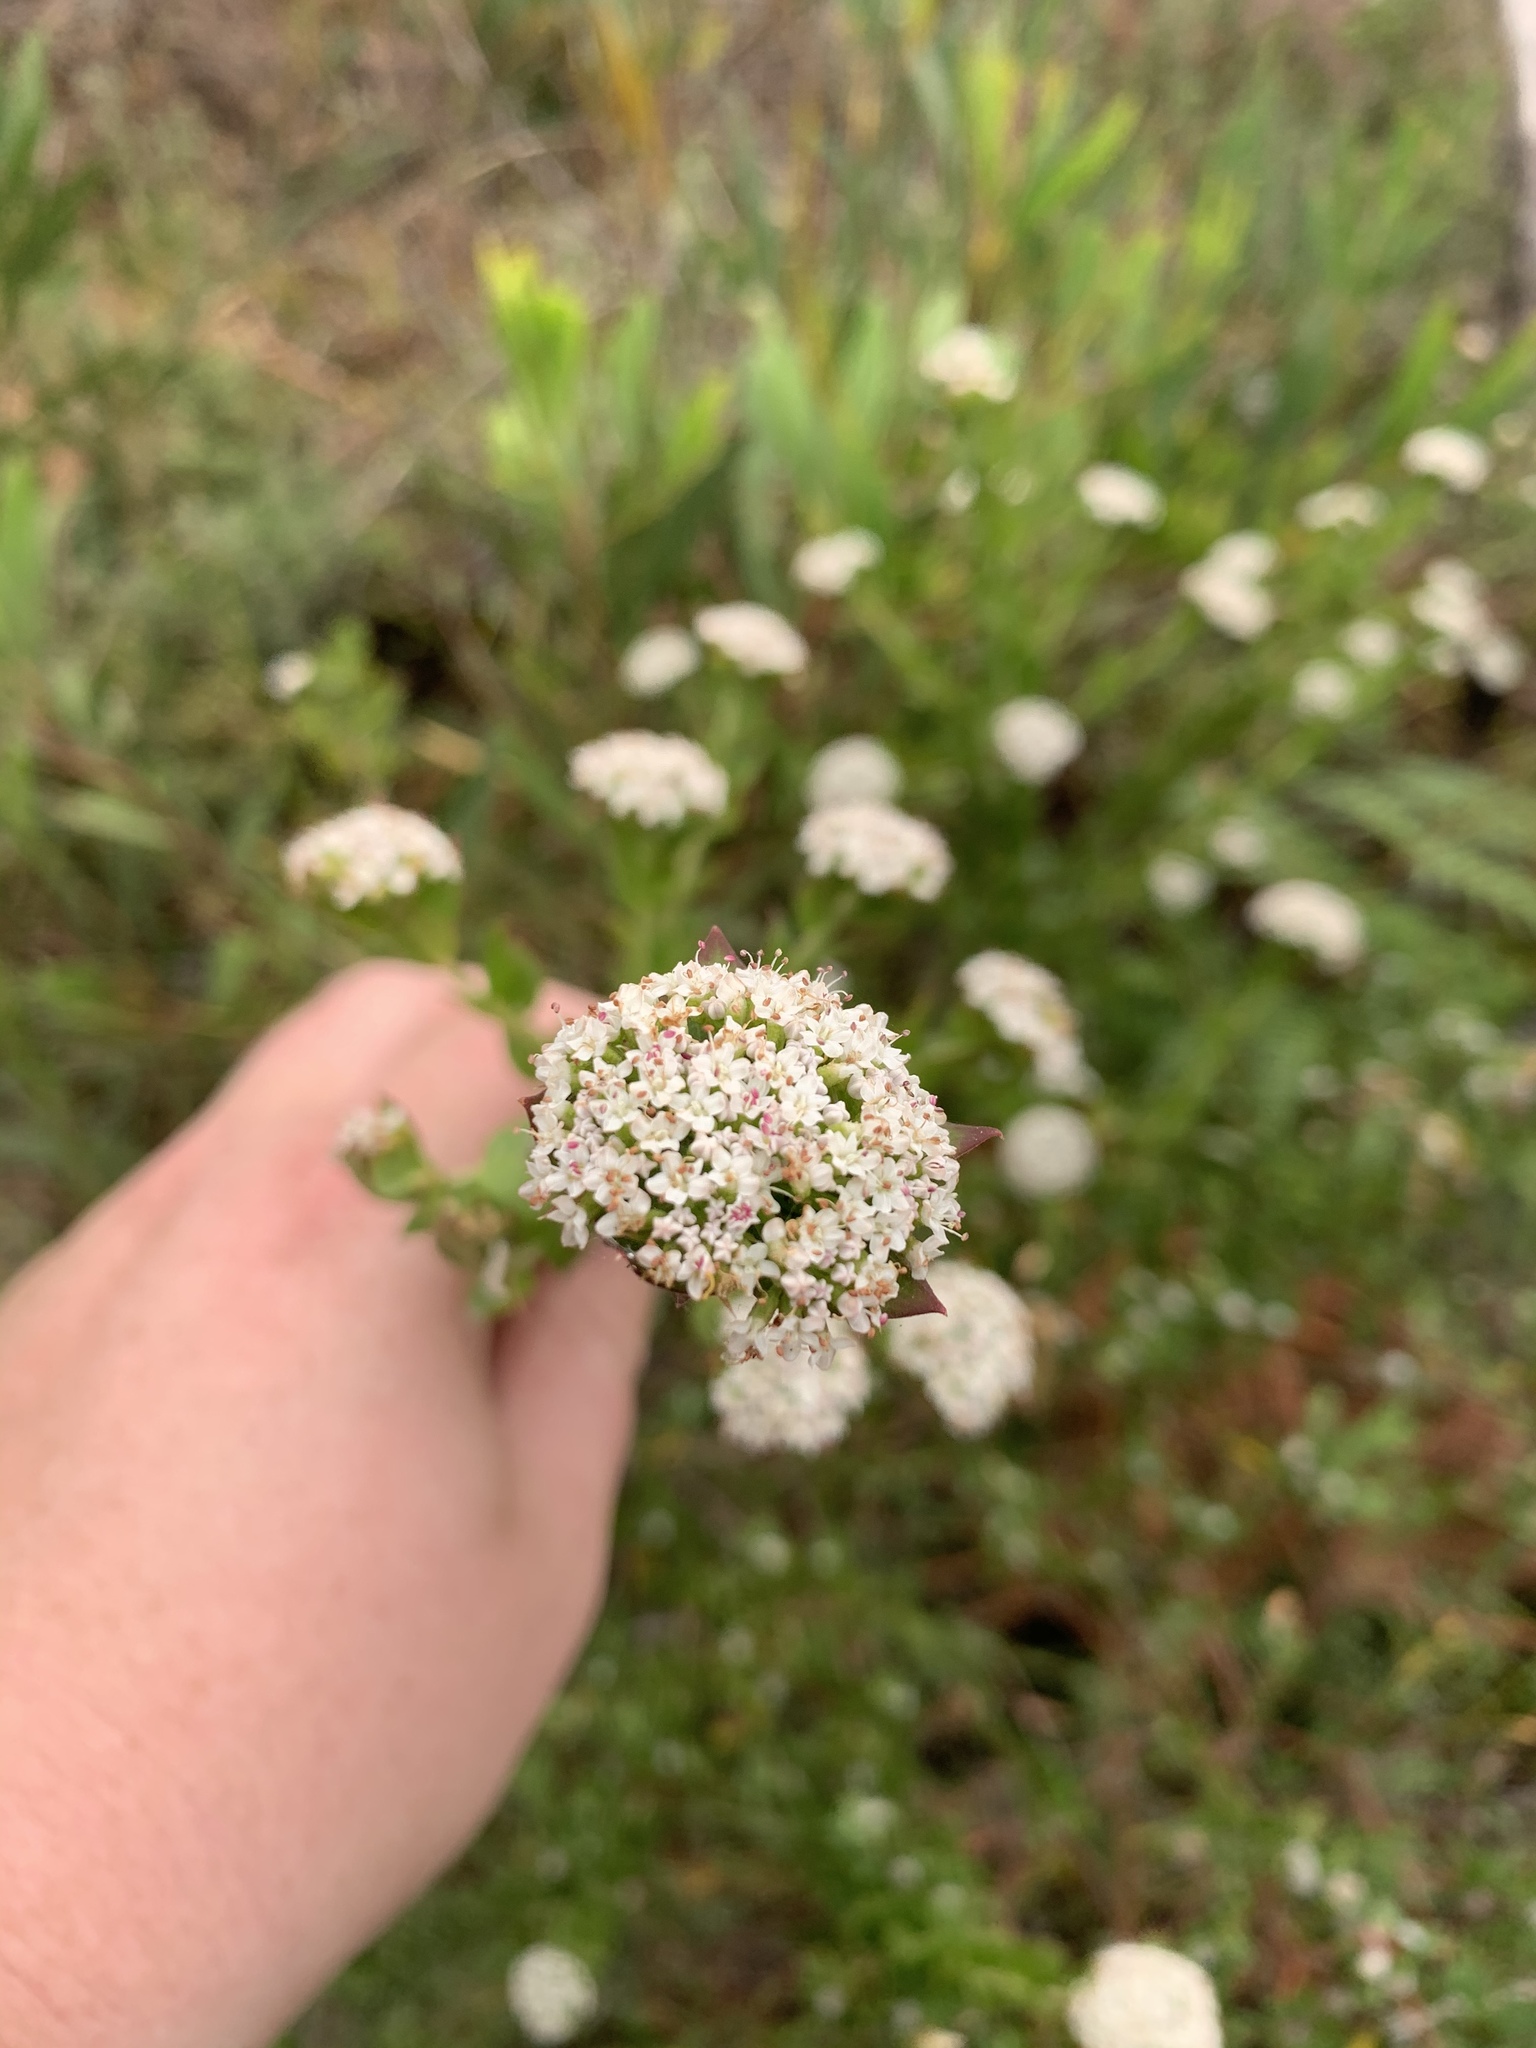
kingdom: Plantae
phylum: Tracheophyta
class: Magnoliopsida
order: Apiales
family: Apiaceae
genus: Platysace
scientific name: Platysace lanceolata
